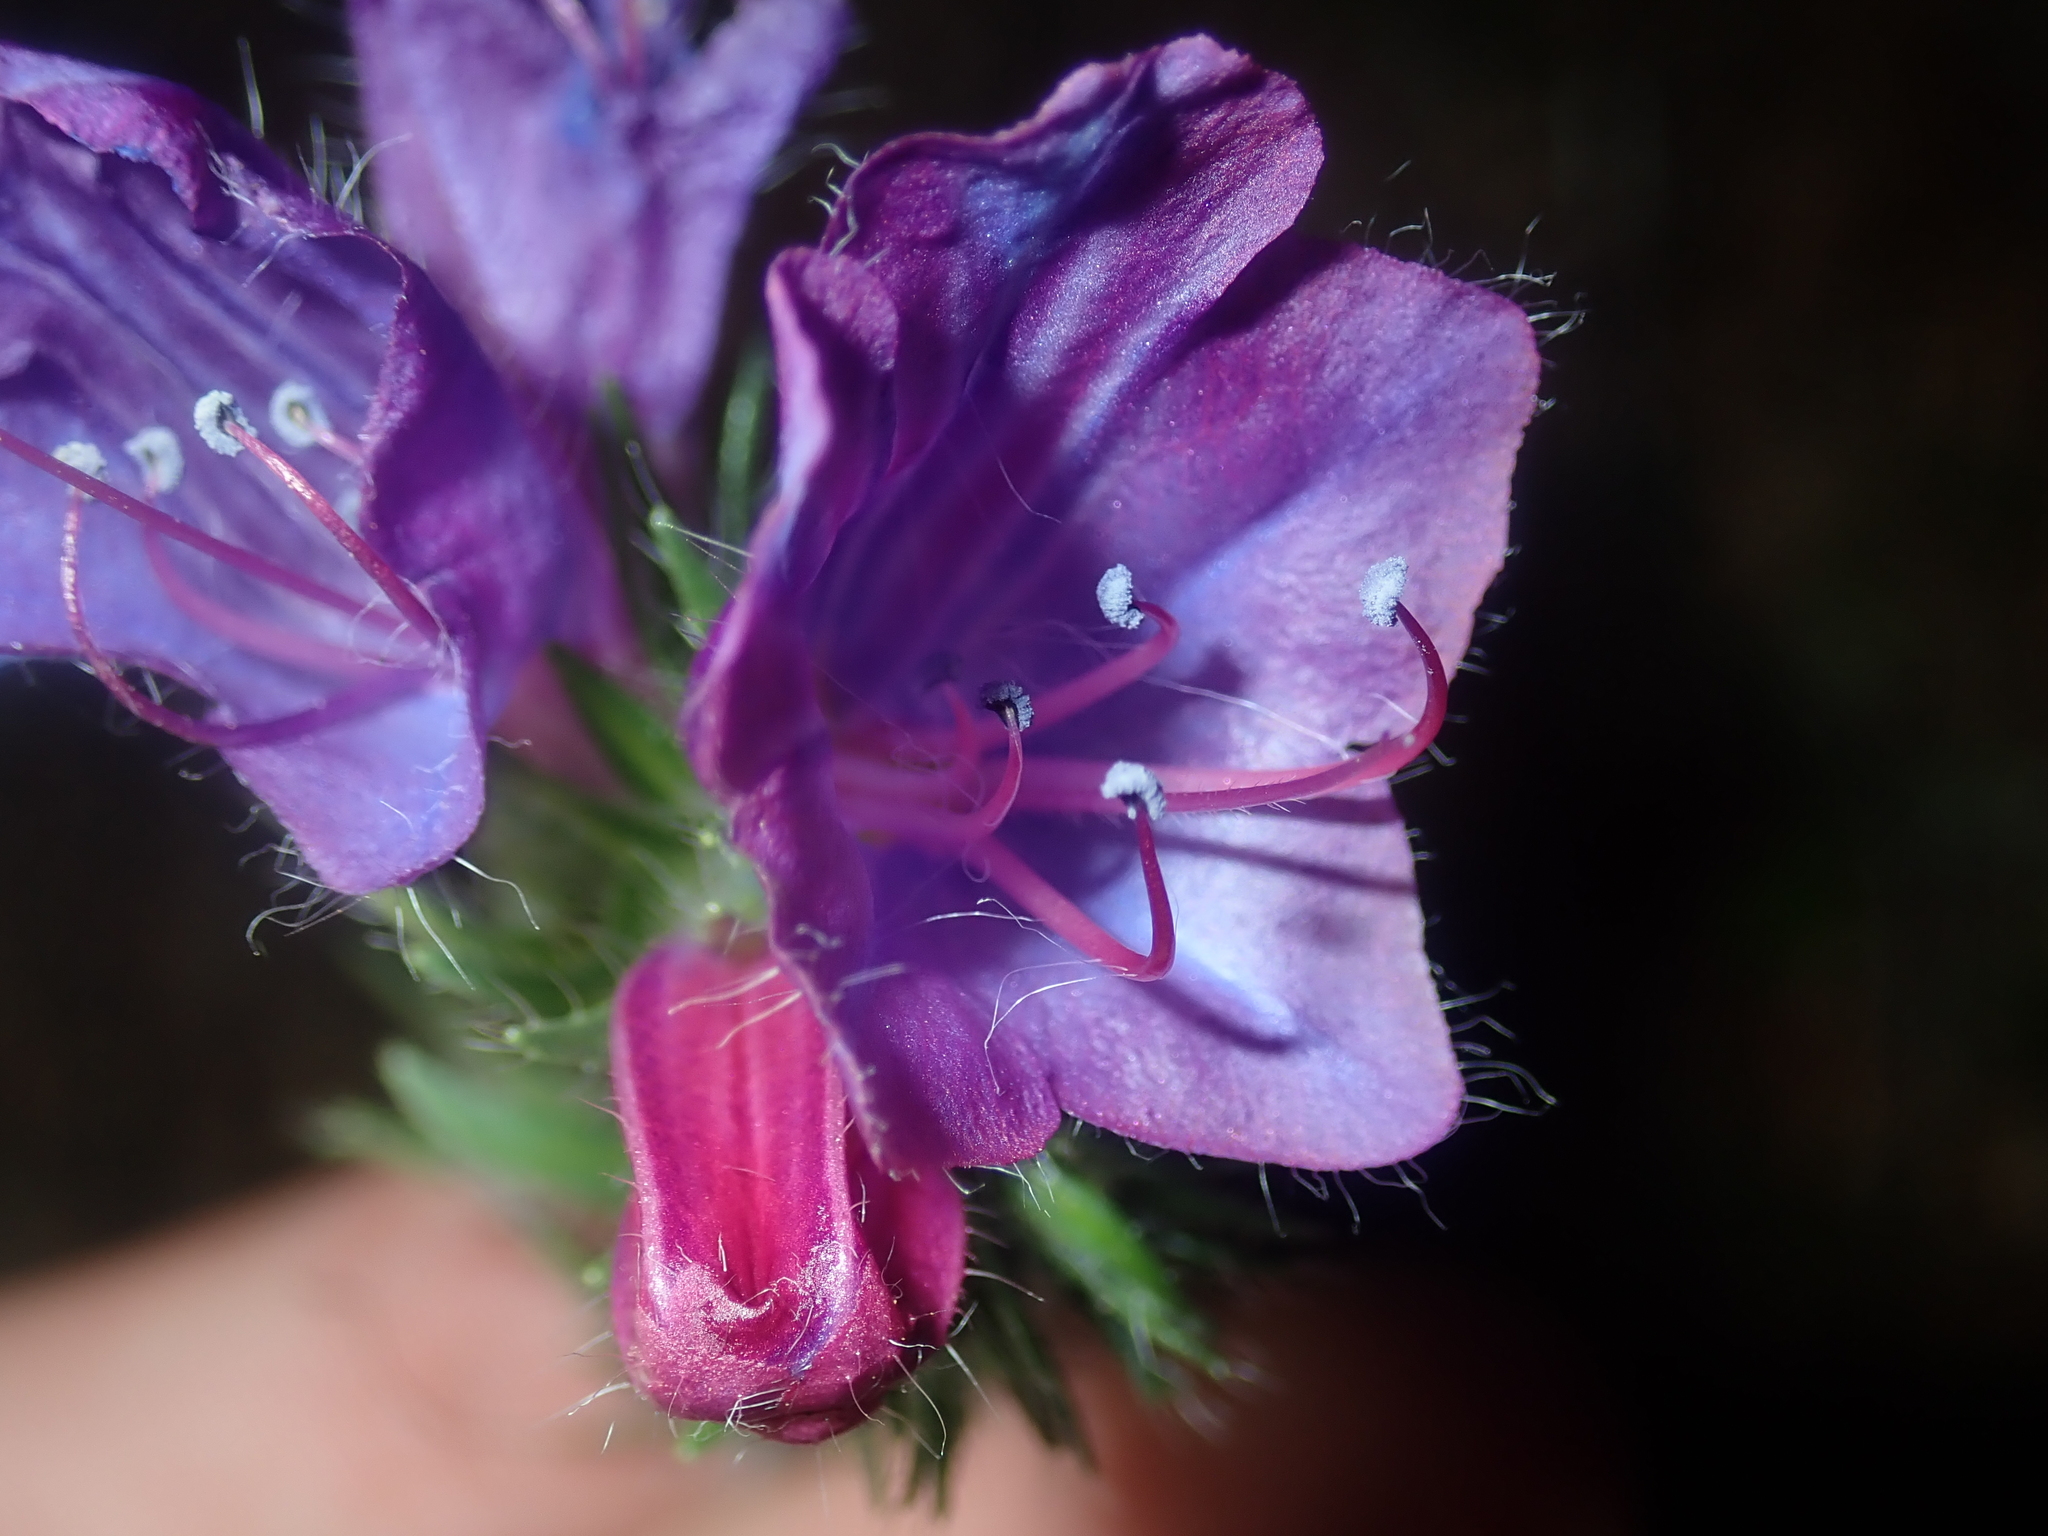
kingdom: Plantae
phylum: Tracheophyta
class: Magnoliopsida
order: Boraginales
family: Boraginaceae
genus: Echium
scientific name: Echium plantagineum
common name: Purple viper's-bugloss
